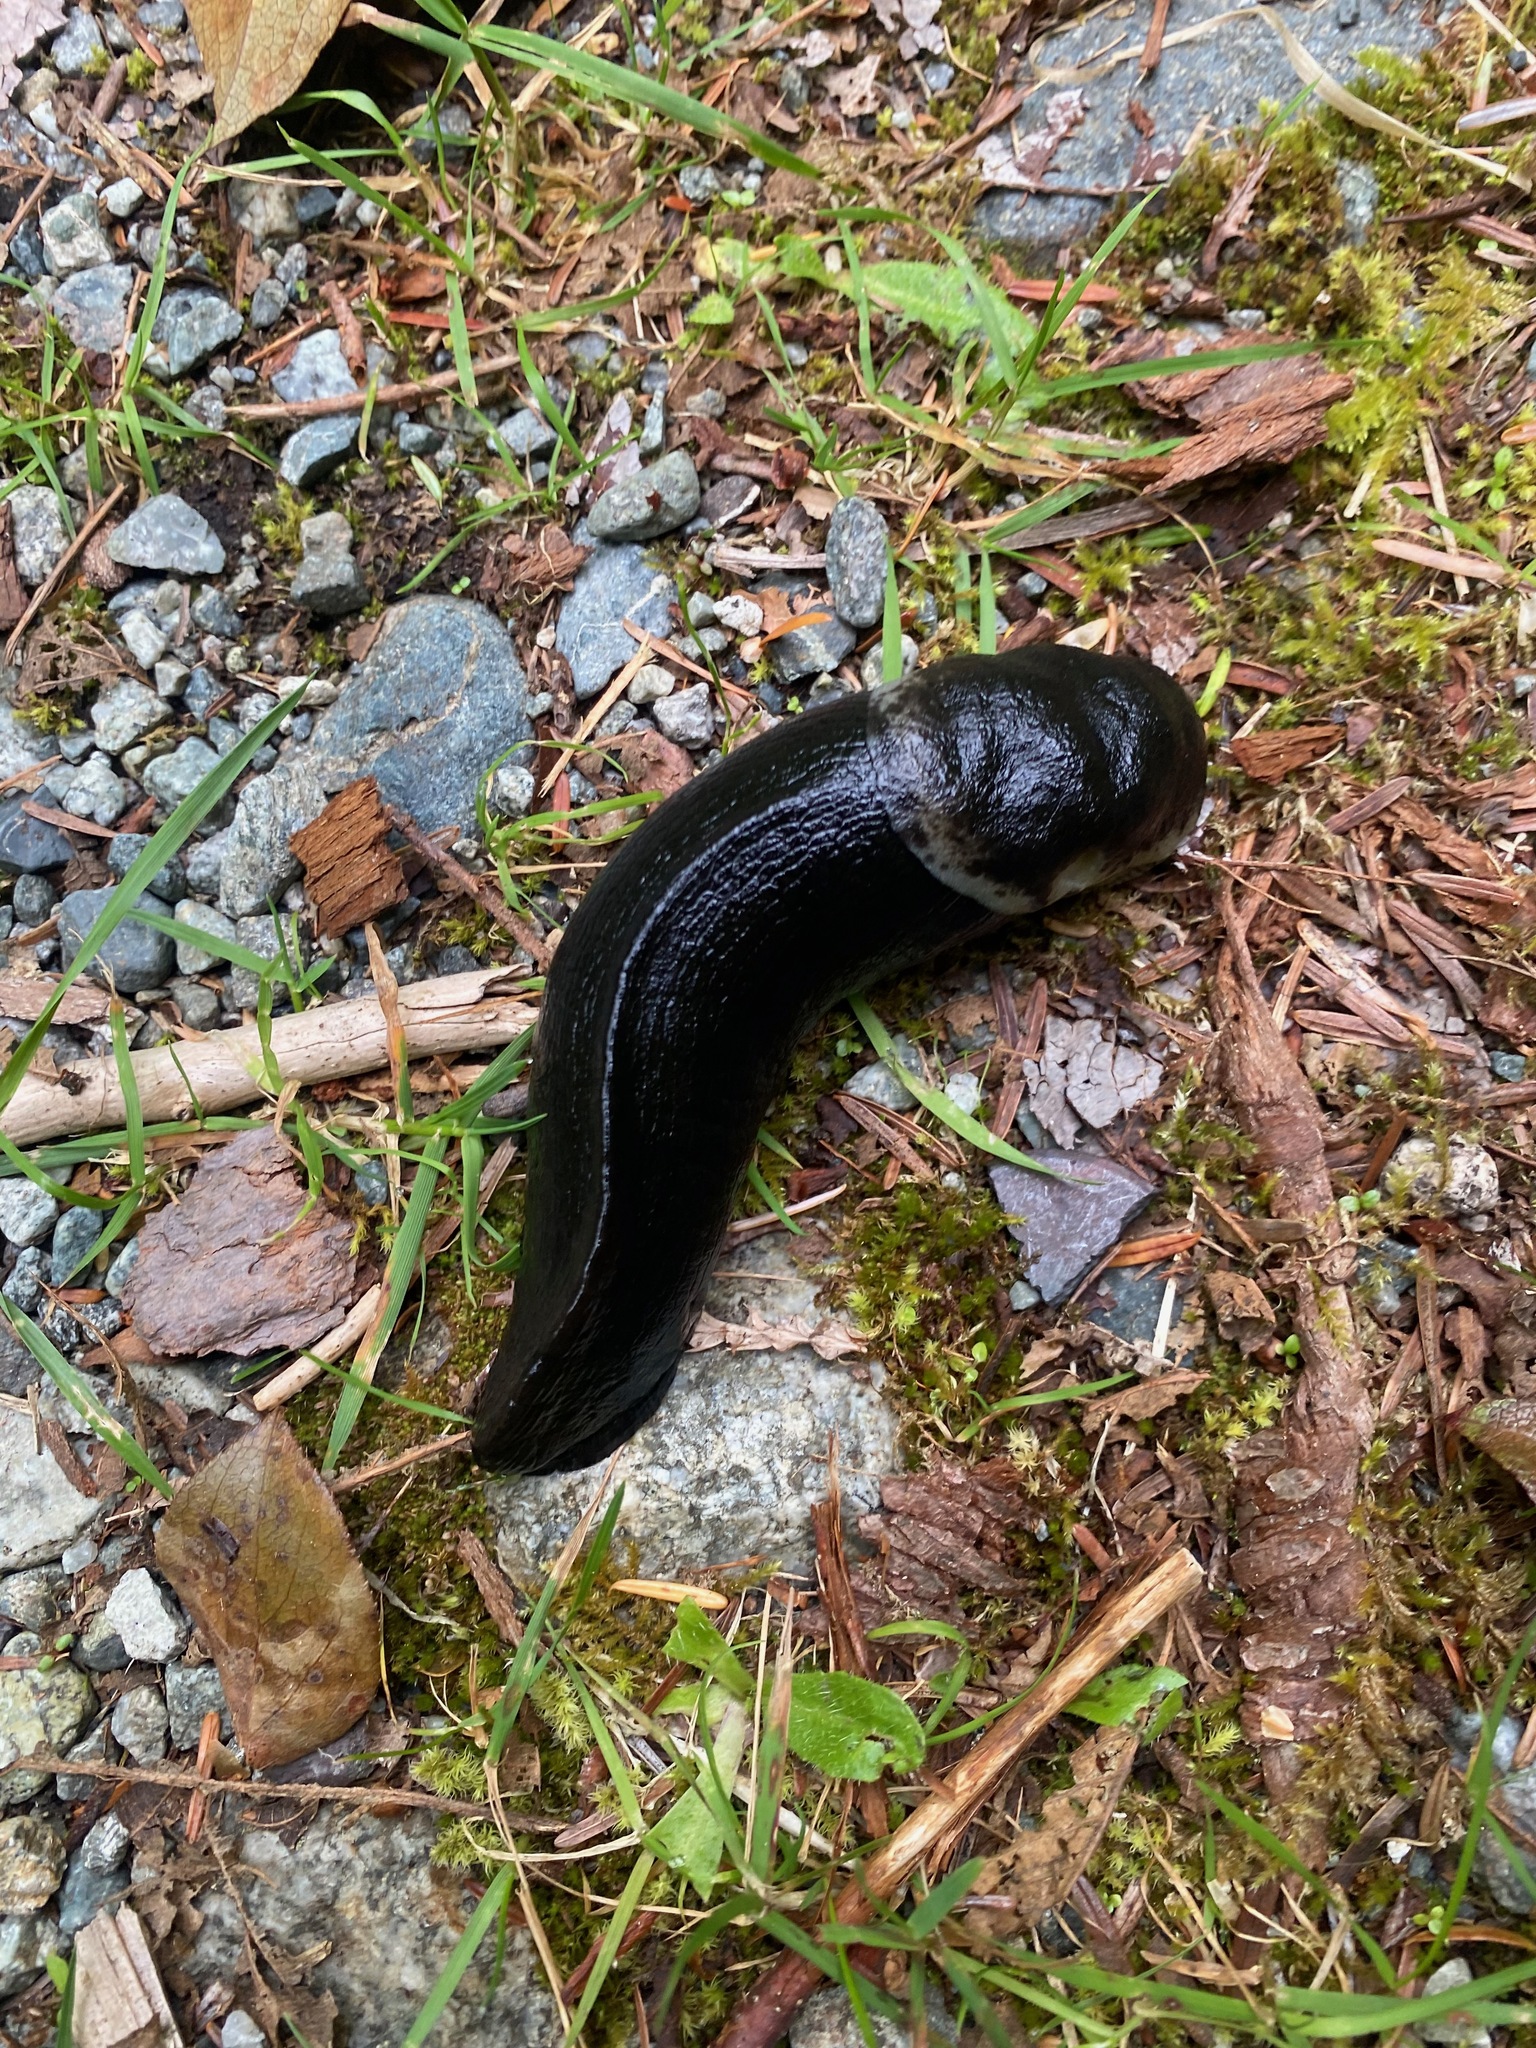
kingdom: Animalia
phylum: Mollusca
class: Gastropoda
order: Stylommatophora
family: Ariolimacidae
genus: Ariolimax
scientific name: Ariolimax columbianus
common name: Pacific banana slug
